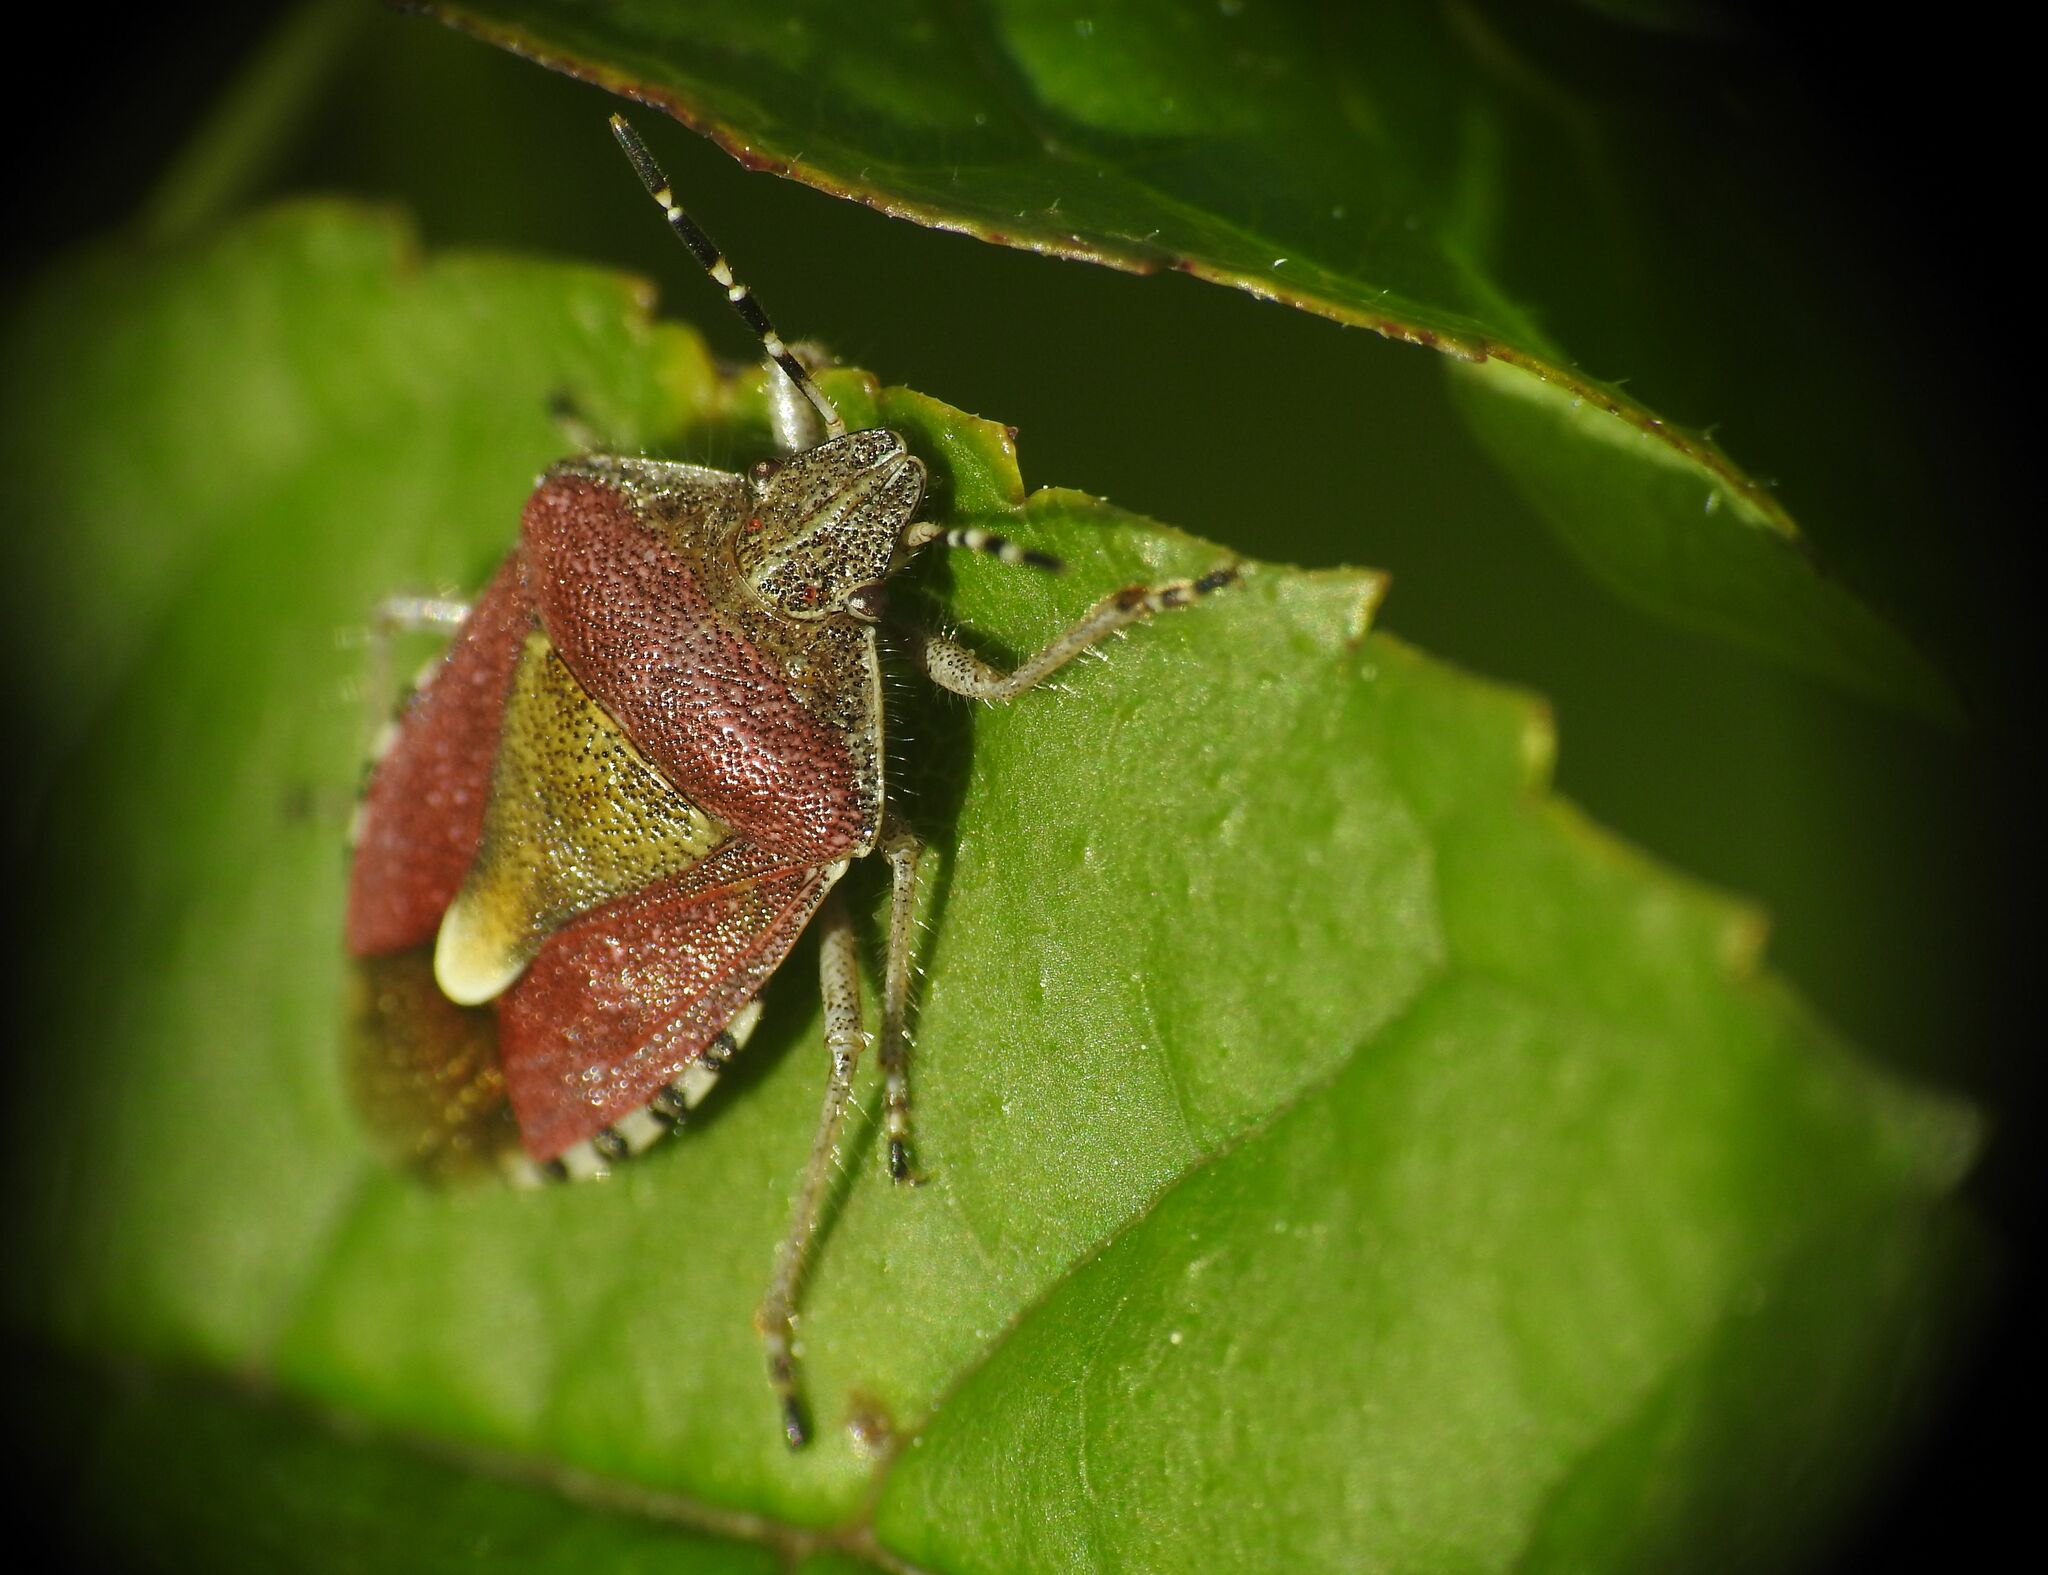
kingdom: Animalia
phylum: Arthropoda
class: Insecta
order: Hemiptera
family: Pentatomidae
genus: Dolycoris
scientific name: Dolycoris baccarum
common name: Sloe bug
